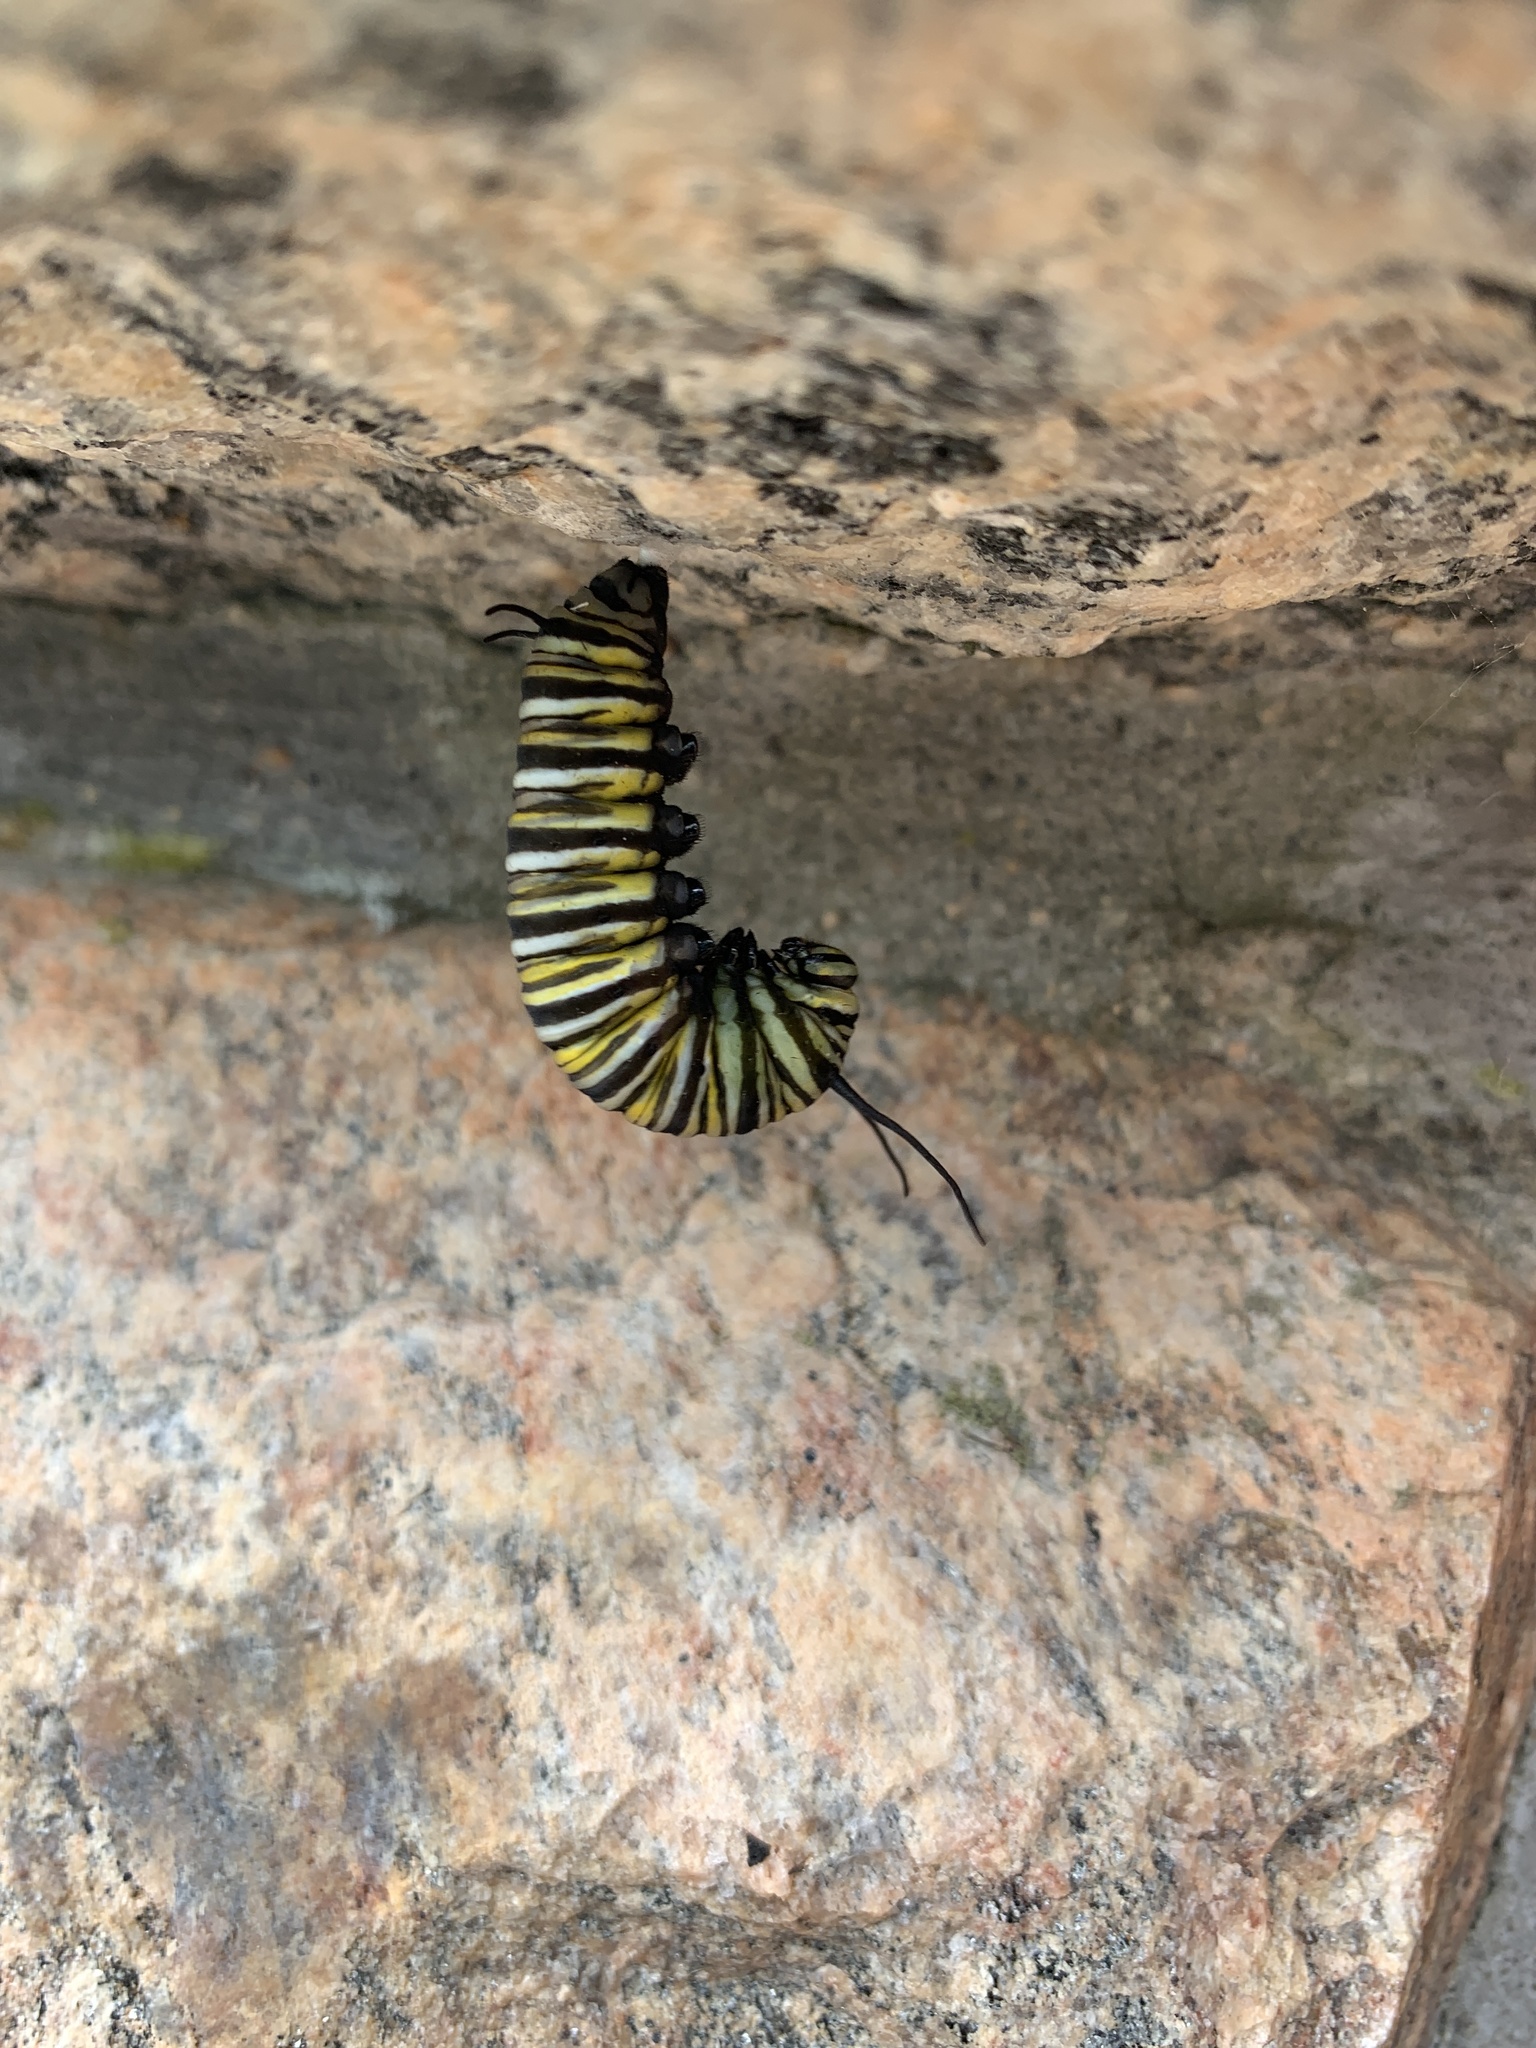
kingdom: Animalia
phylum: Arthropoda
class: Insecta
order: Lepidoptera
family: Nymphalidae
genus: Danaus
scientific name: Danaus plexippus
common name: Monarch
